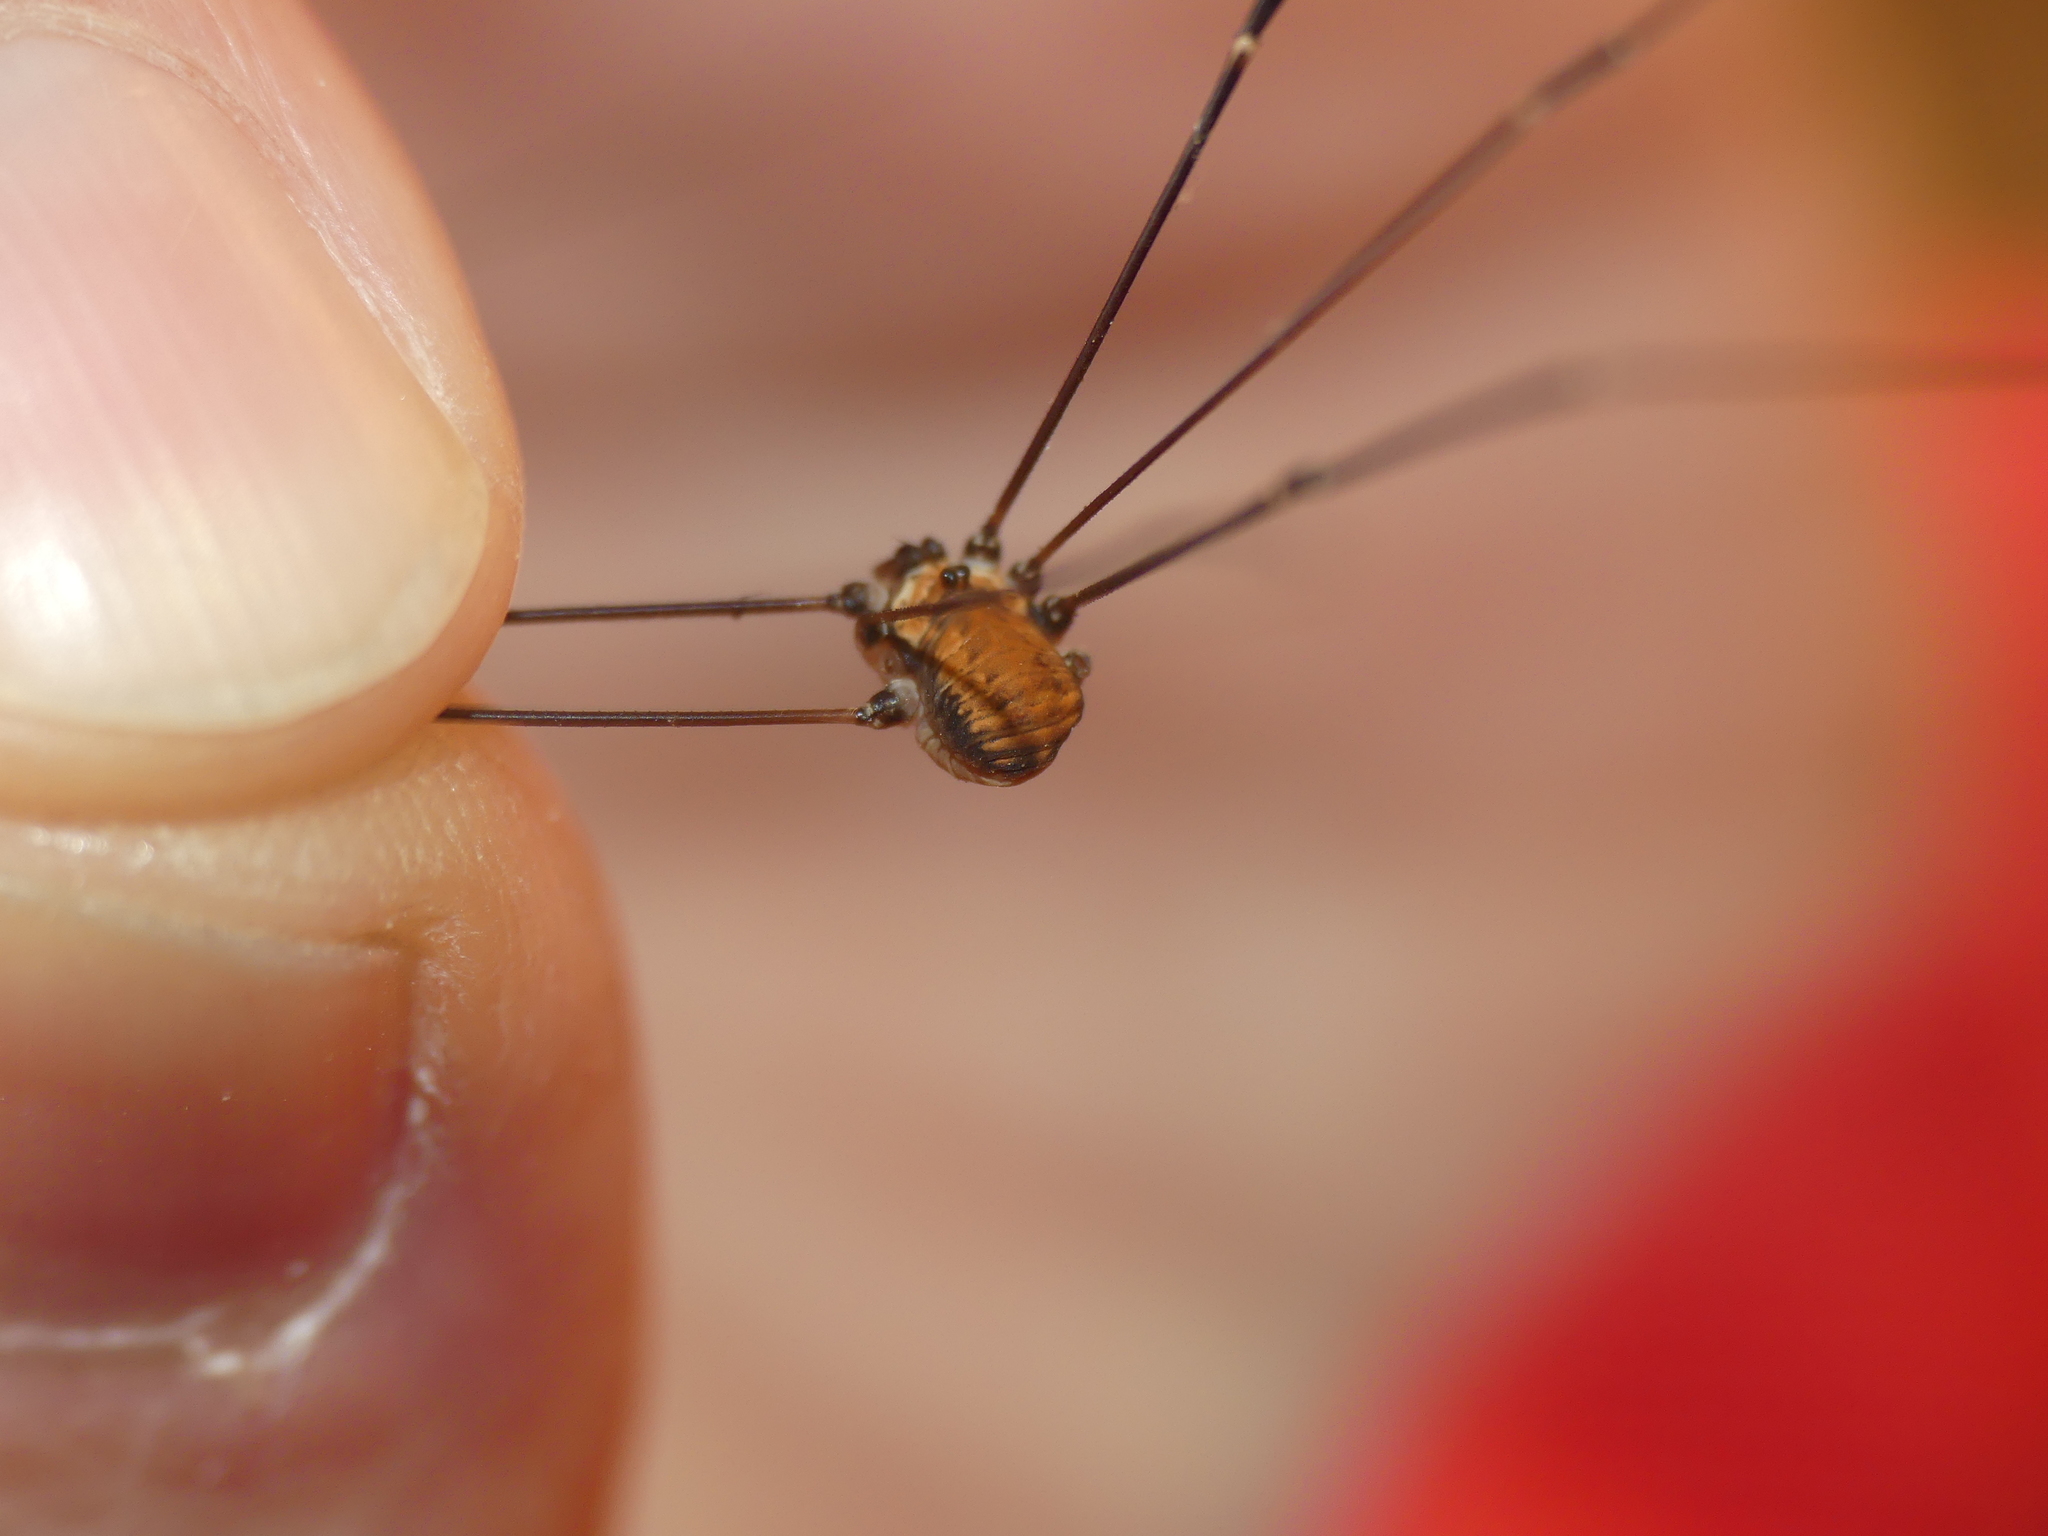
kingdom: Animalia
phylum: Arthropoda
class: Arachnida
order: Opiliones
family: Sclerosomatidae
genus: Leiobunum
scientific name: Leiobunum limbatum
